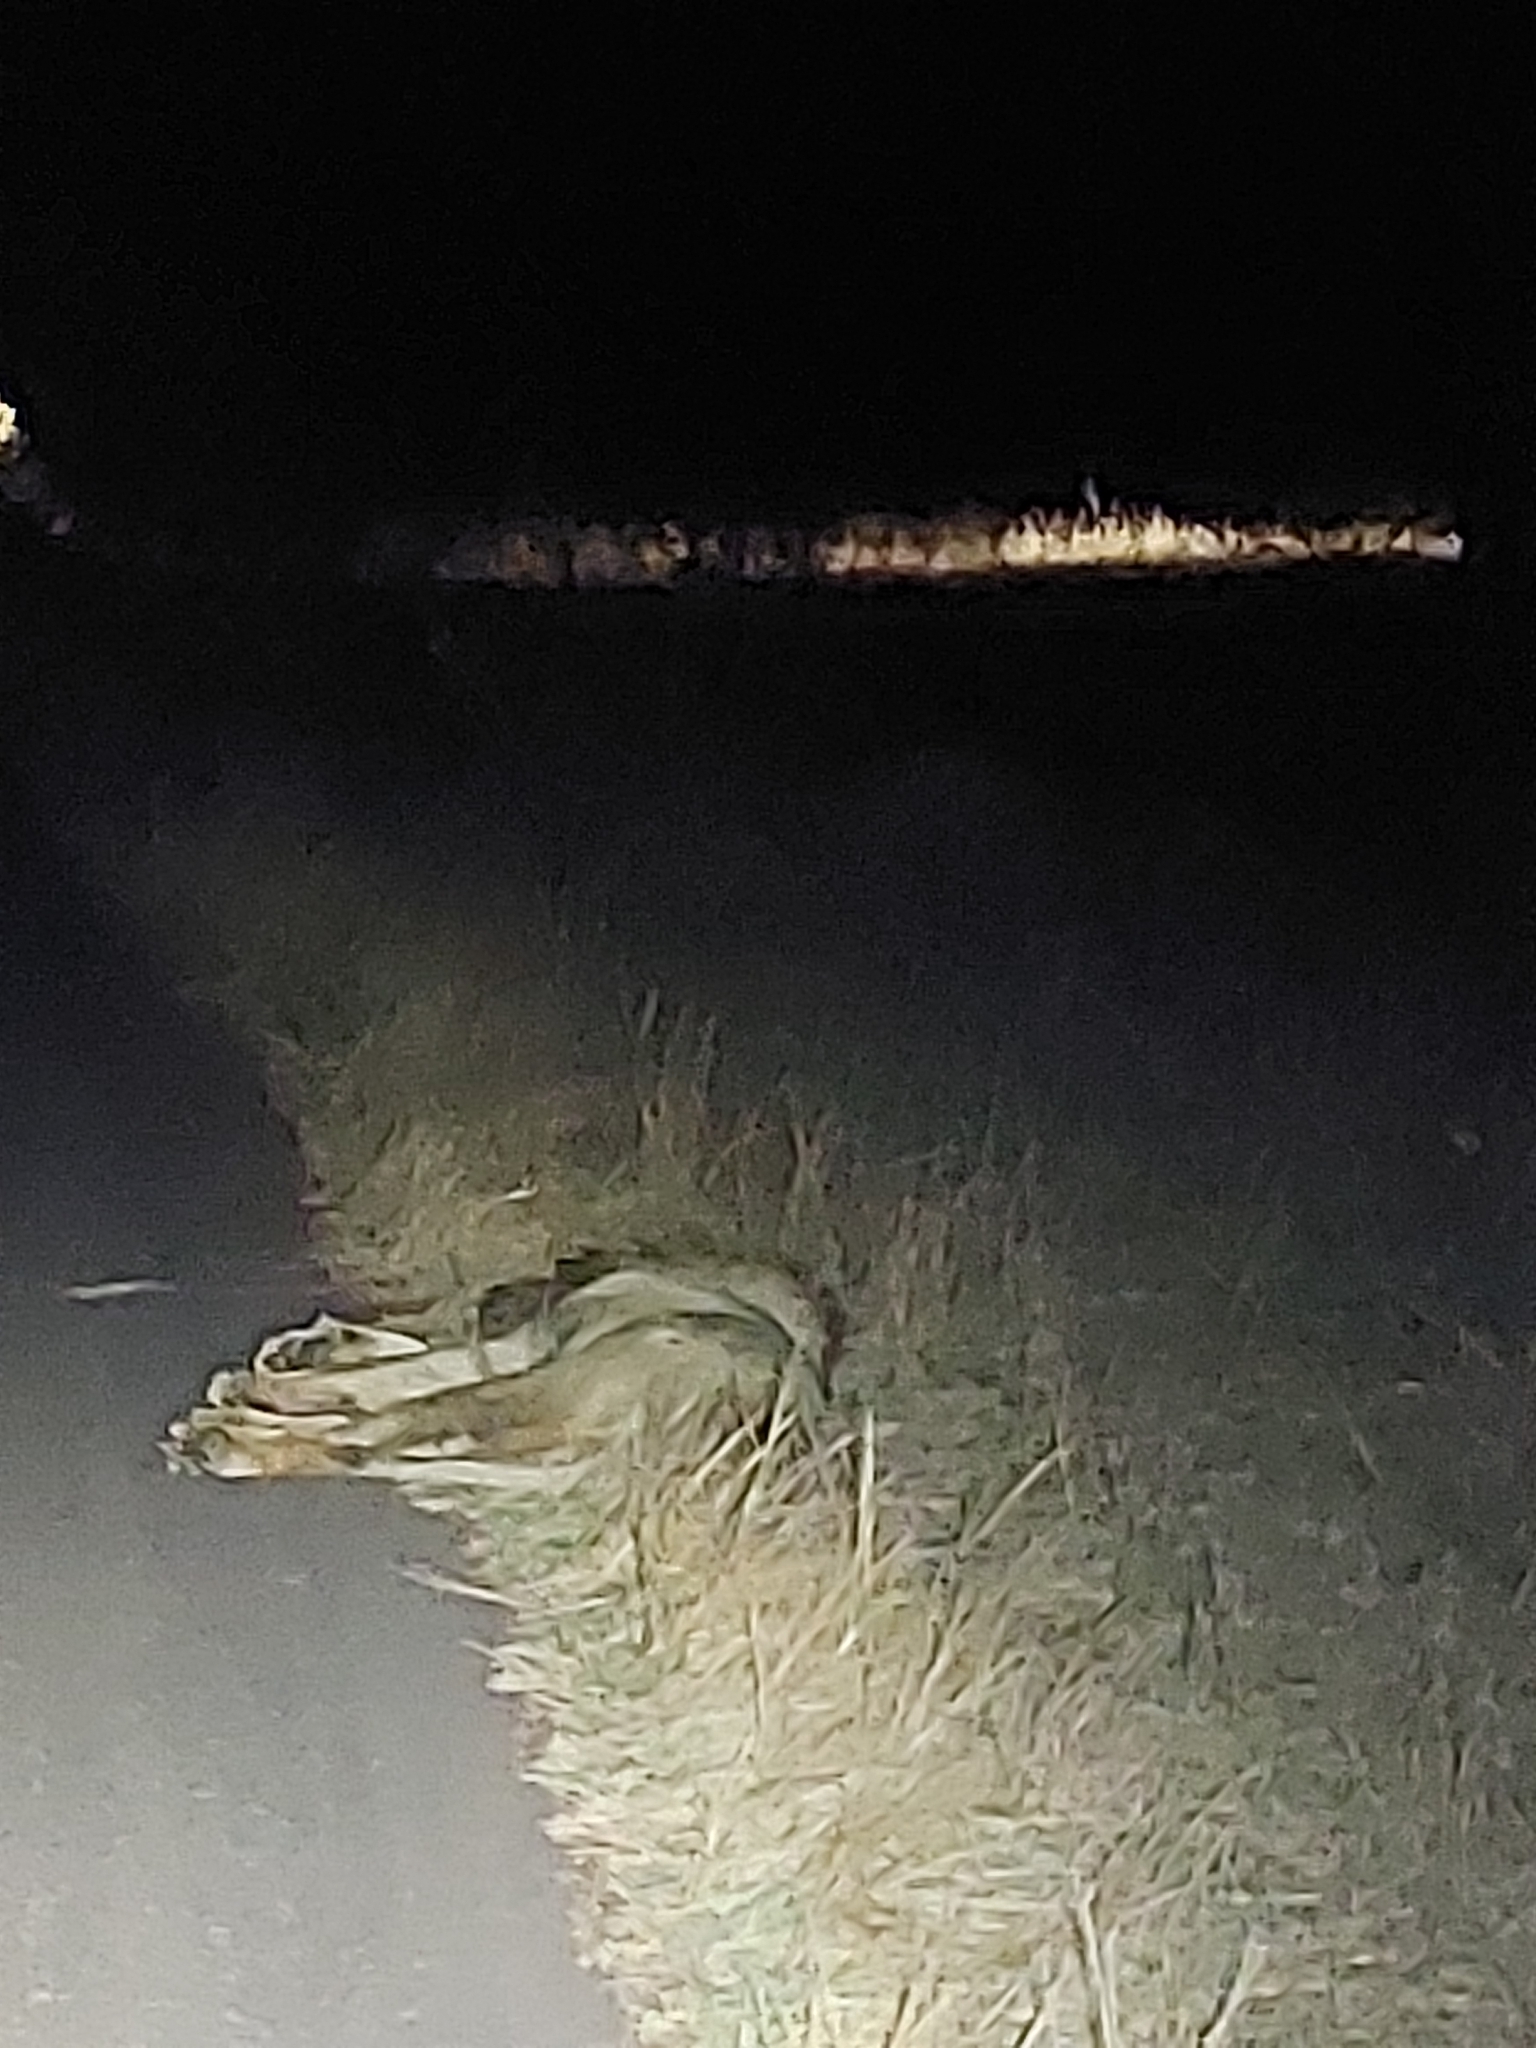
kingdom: Animalia
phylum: Chordata
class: Mammalia
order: Carnivora
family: Felidae
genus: Panthera
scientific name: Panthera leo
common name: Lion
